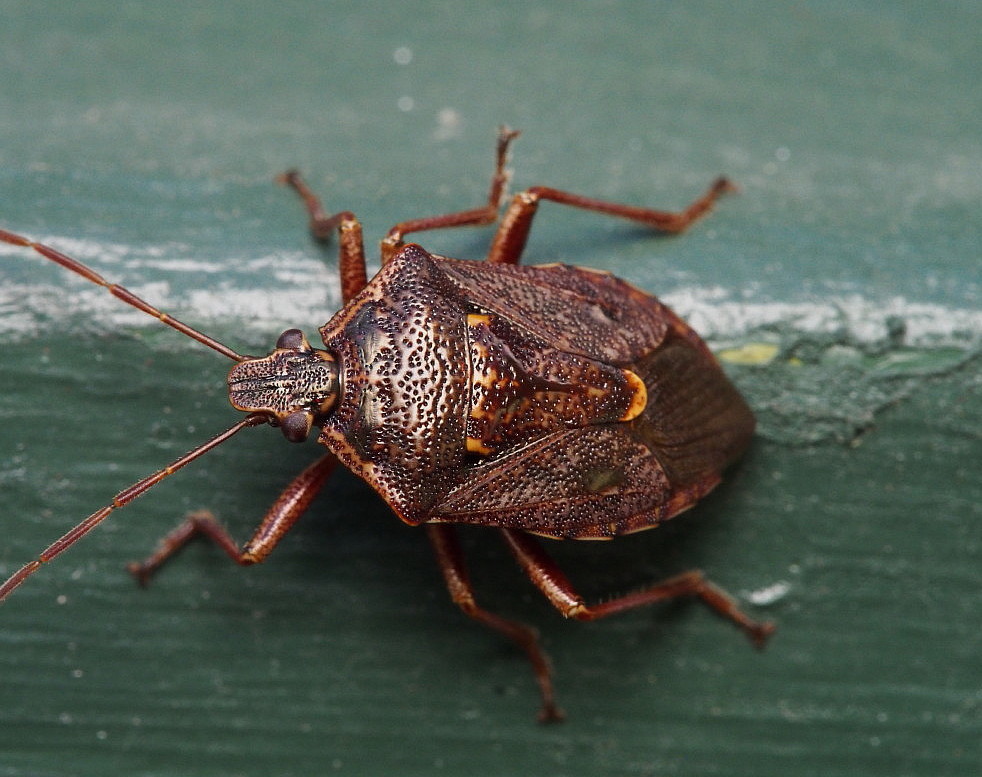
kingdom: Animalia
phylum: Arthropoda
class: Insecta
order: Hemiptera
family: Pentatomidae
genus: Cermatulus
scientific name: Cermatulus nasalis
